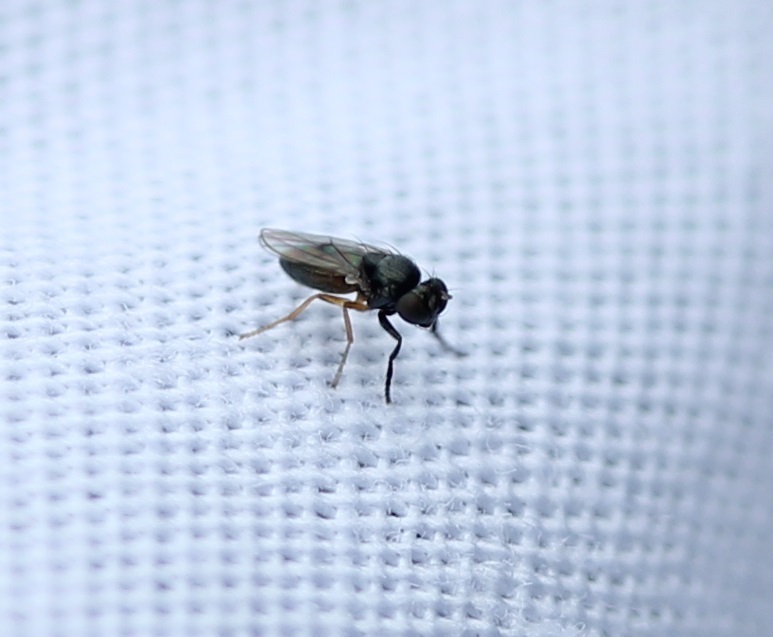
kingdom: Animalia
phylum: Arthropoda
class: Insecta
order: Diptera
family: Ephydridae
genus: Leptopsilopa
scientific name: Leptopsilopa atrimanus
